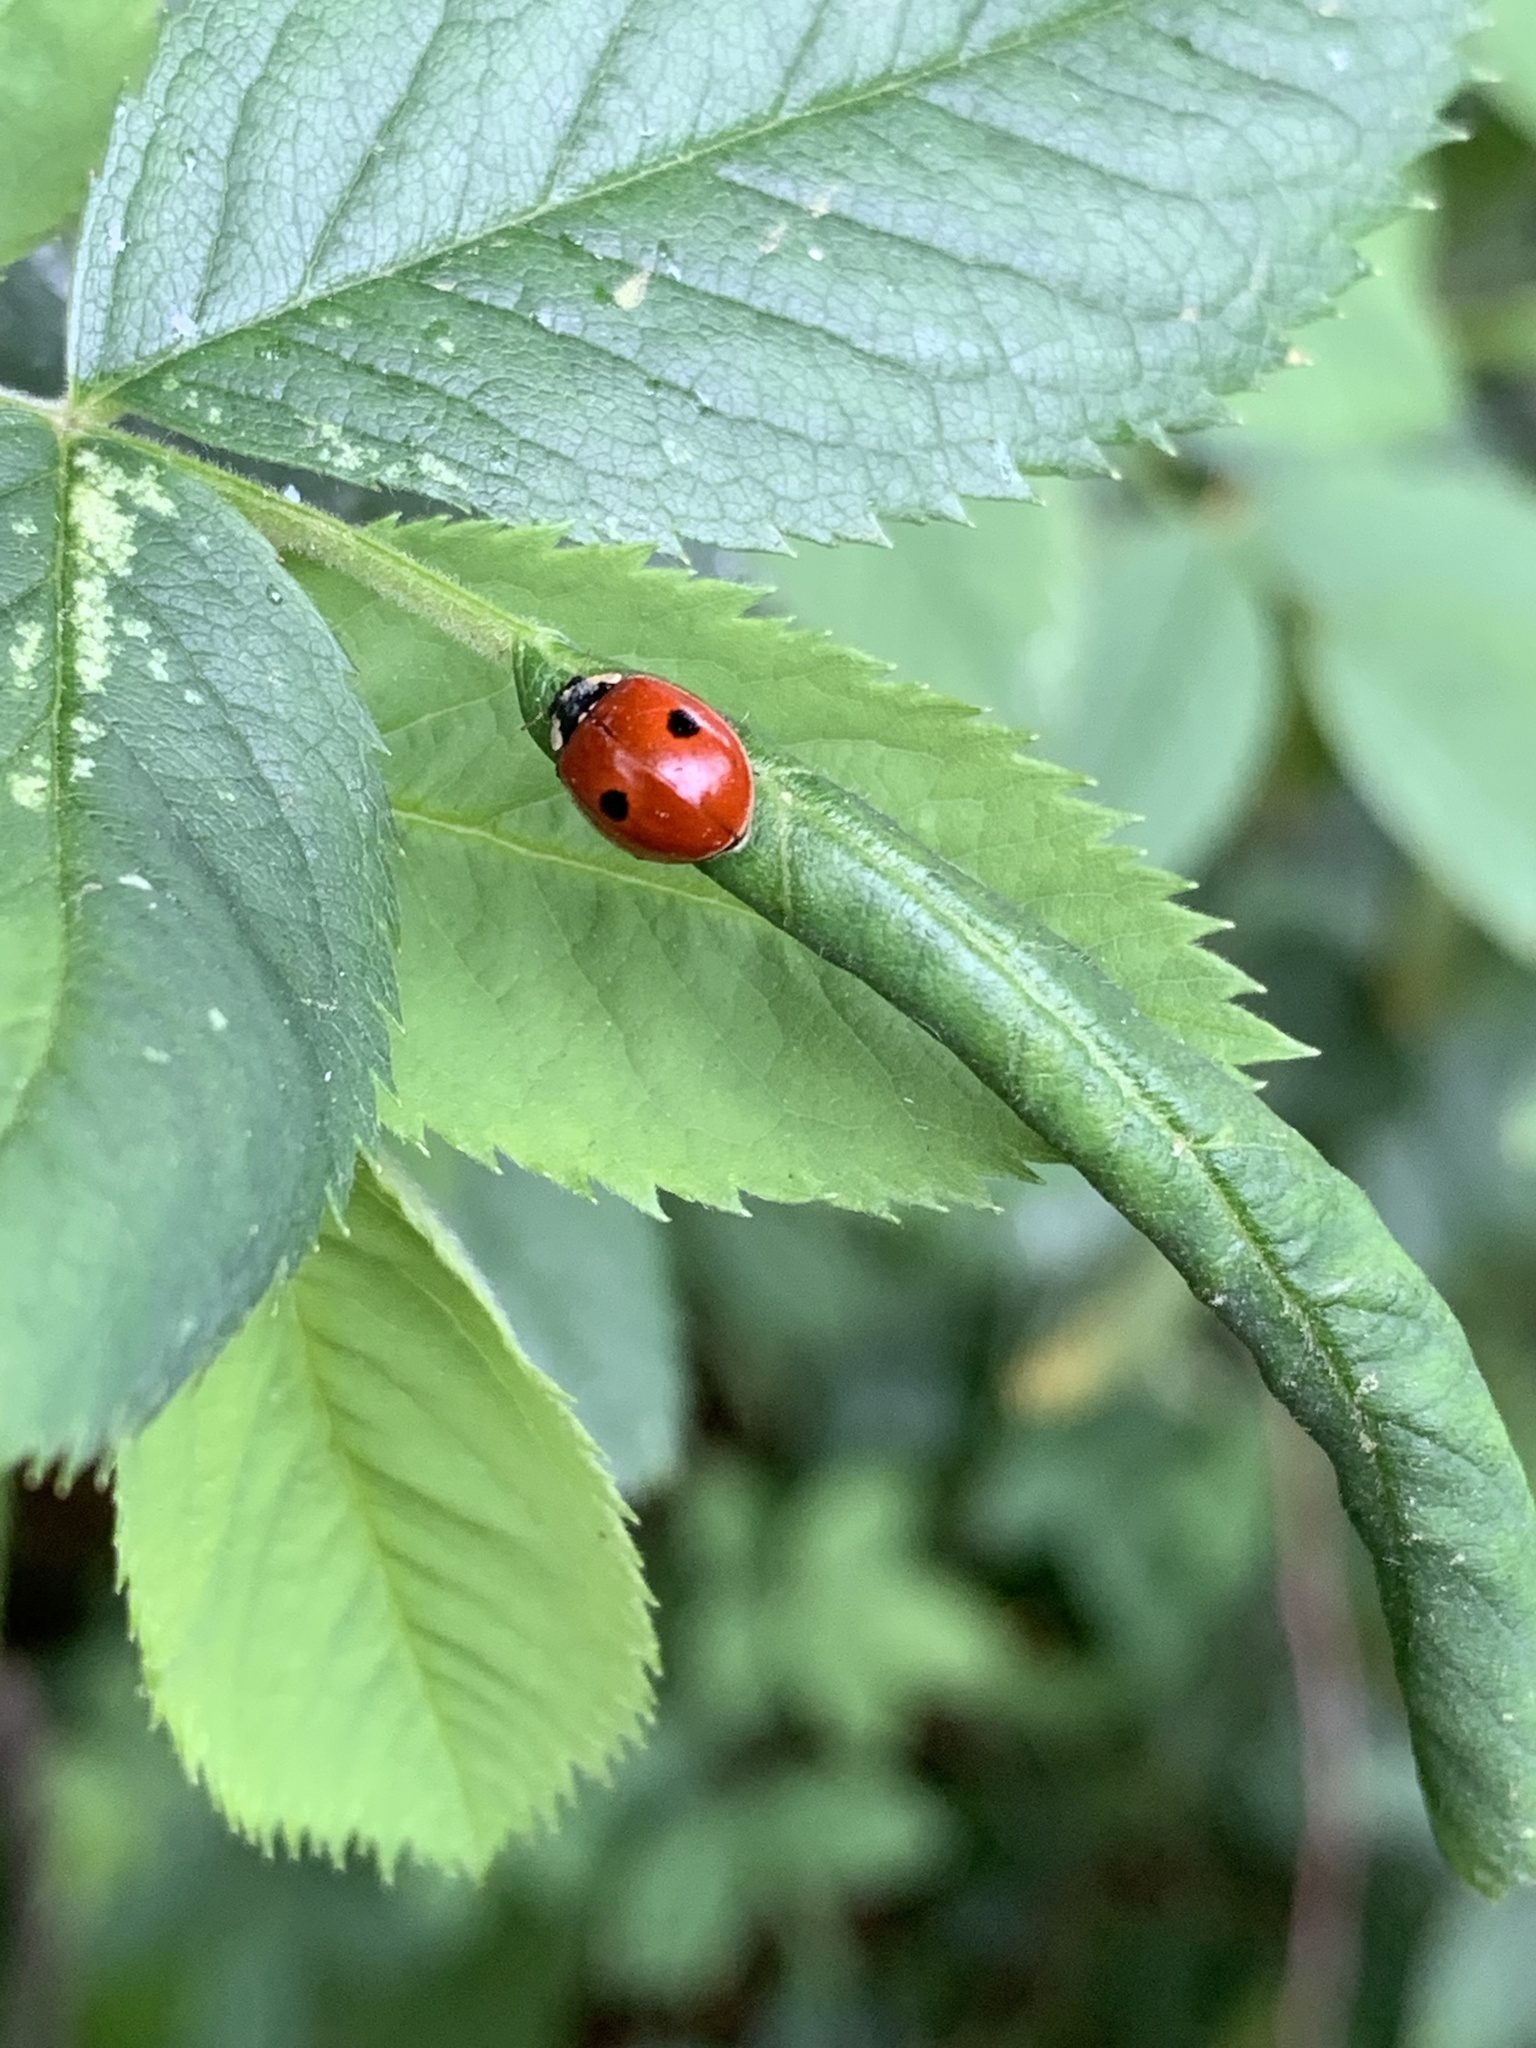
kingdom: Animalia
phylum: Arthropoda
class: Insecta
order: Coleoptera
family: Coccinellidae
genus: Adalia
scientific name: Adalia bipunctata
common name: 2-spot ladybird
